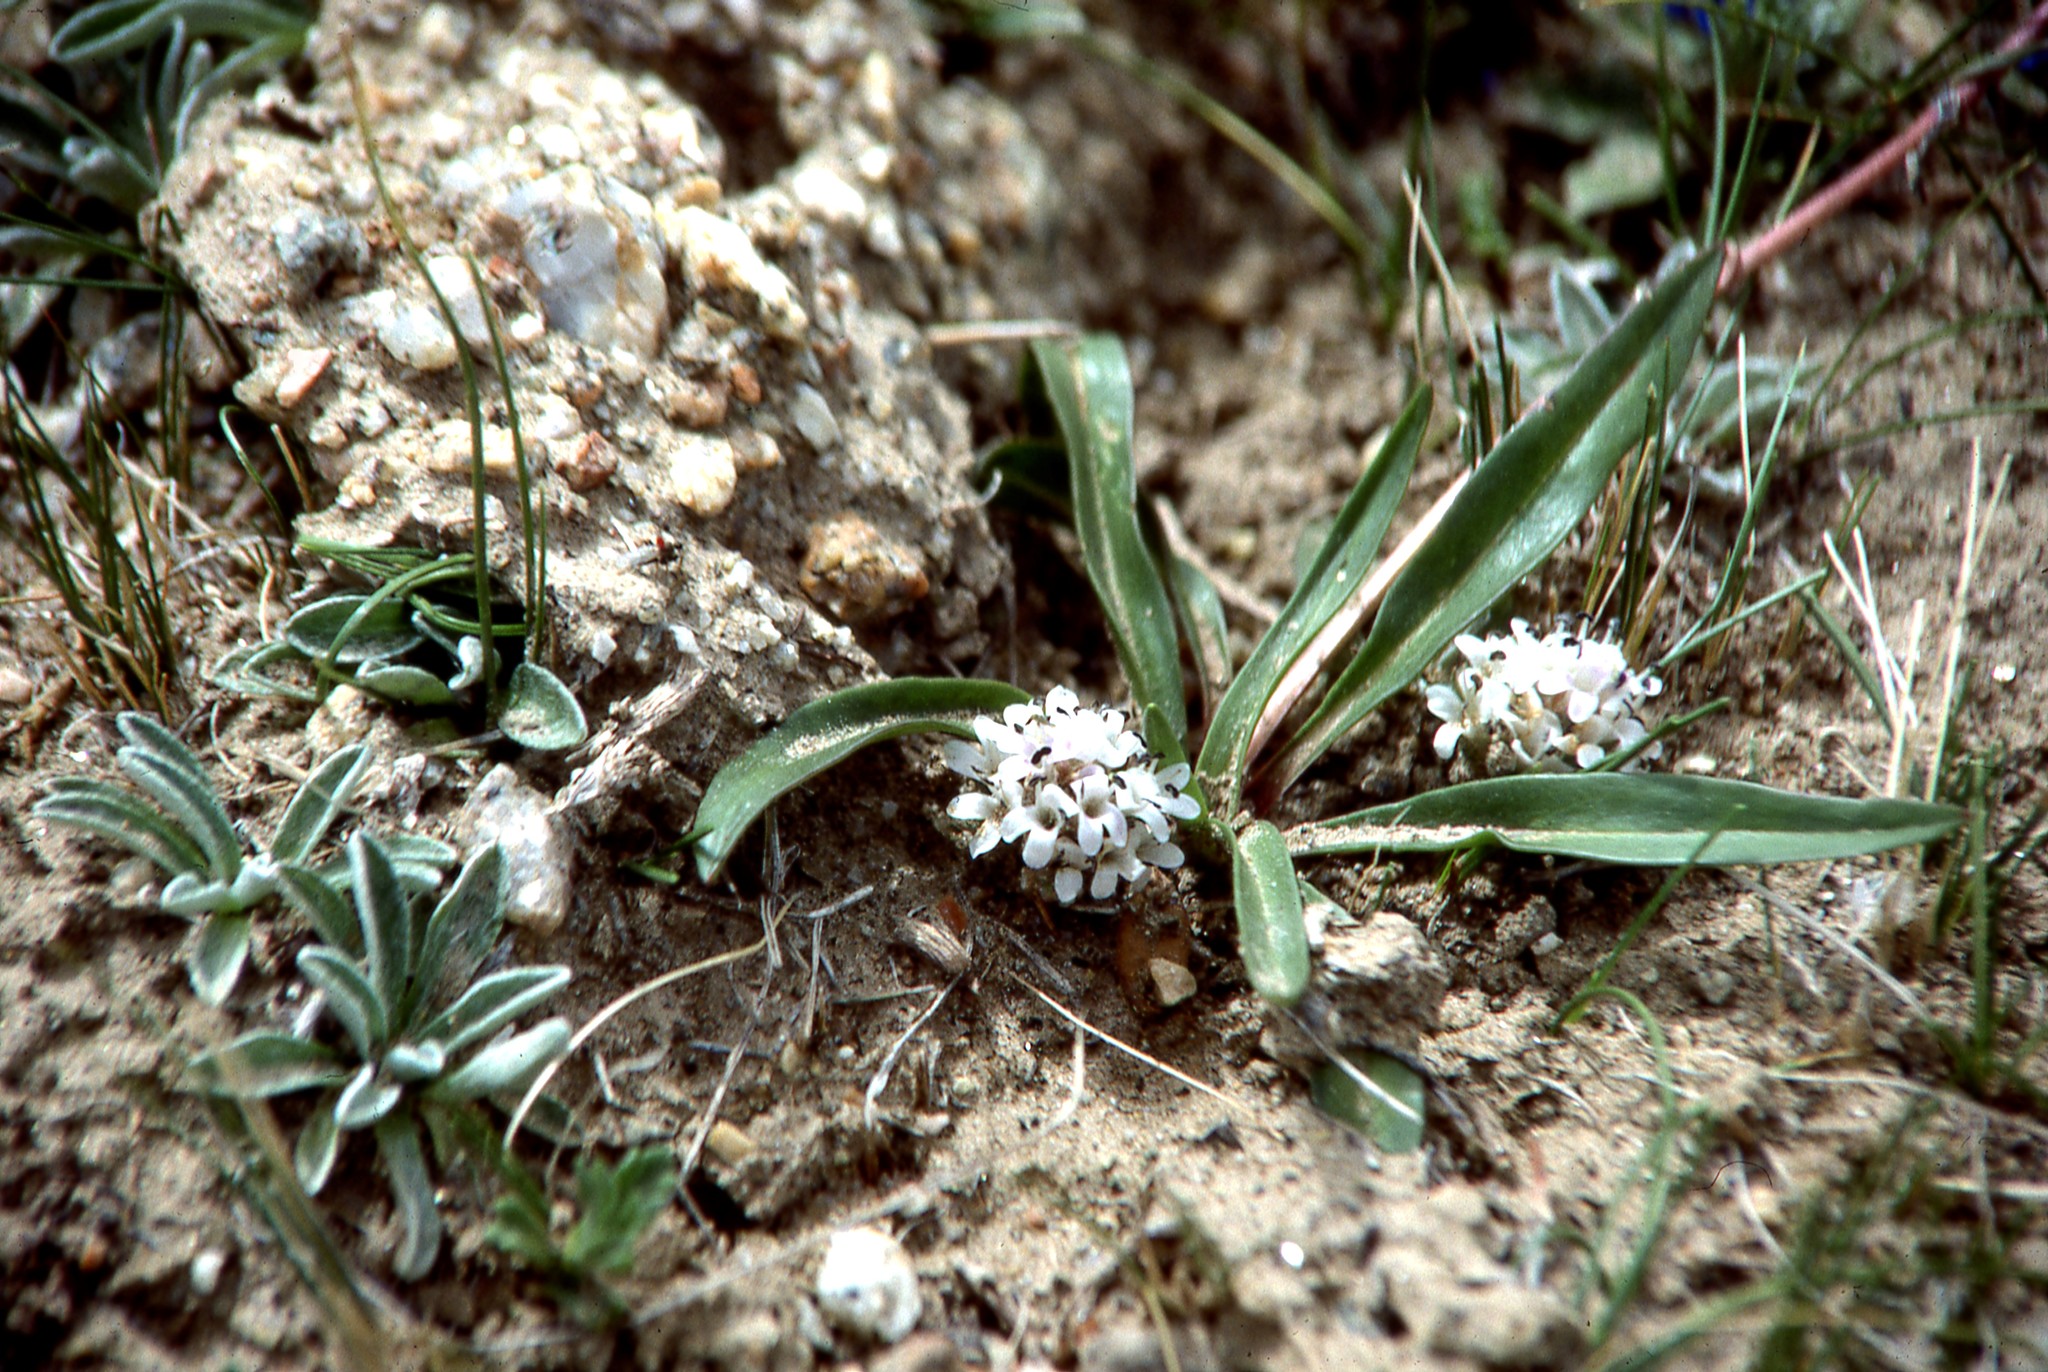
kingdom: Plantae
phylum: Tracheophyta
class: Magnoliopsida
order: Lamiales
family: Plantaginaceae
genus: Lagotis
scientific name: Lagotis brachystachya
